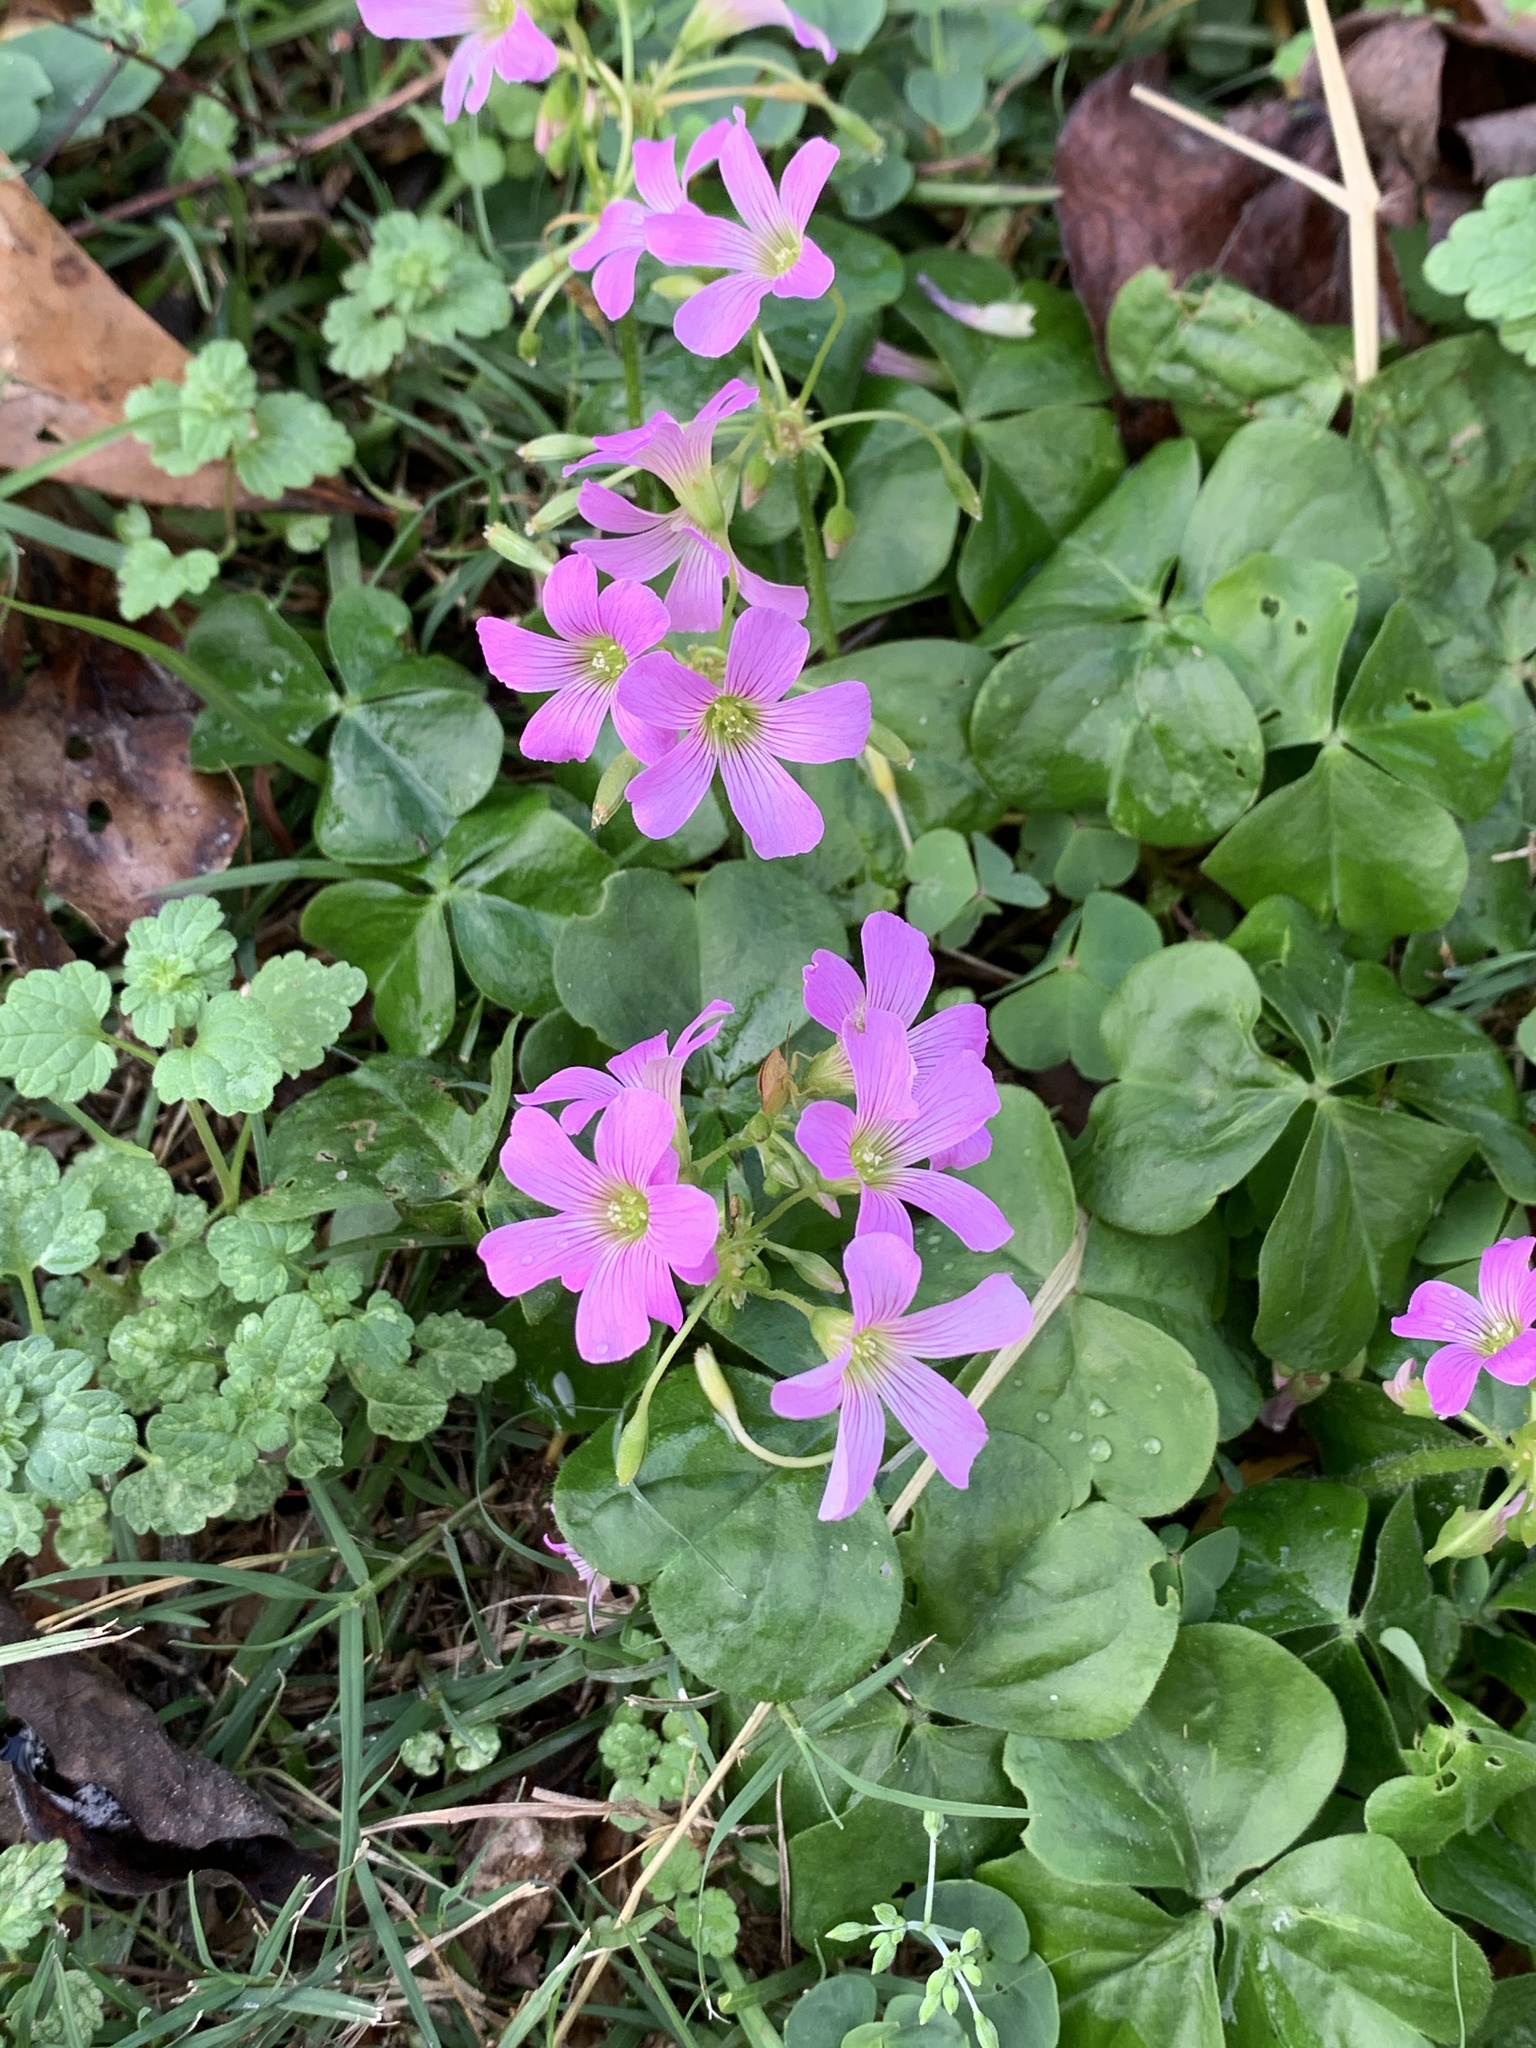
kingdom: Plantae
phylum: Tracheophyta
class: Magnoliopsida
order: Oxalidales
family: Oxalidaceae
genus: Oxalis
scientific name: Oxalis debilis
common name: Large-flowered pink-sorrel
